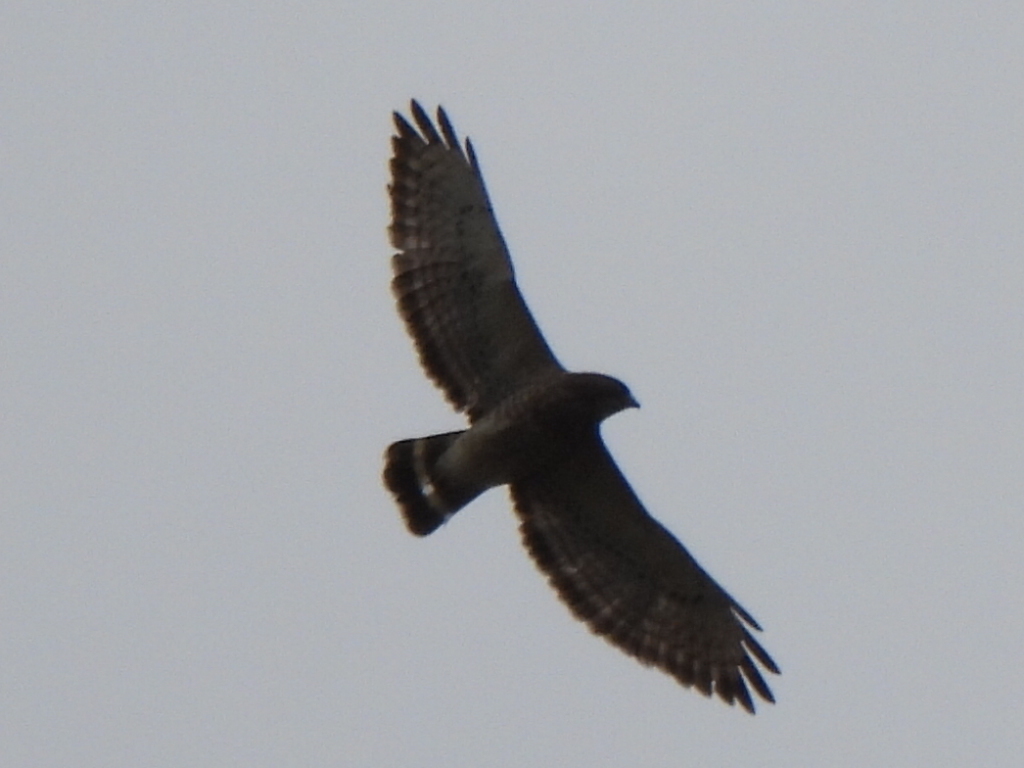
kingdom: Animalia
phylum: Chordata
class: Aves
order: Accipitriformes
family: Accipitridae
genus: Buteo
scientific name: Buteo platypterus
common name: Broad-winged hawk
